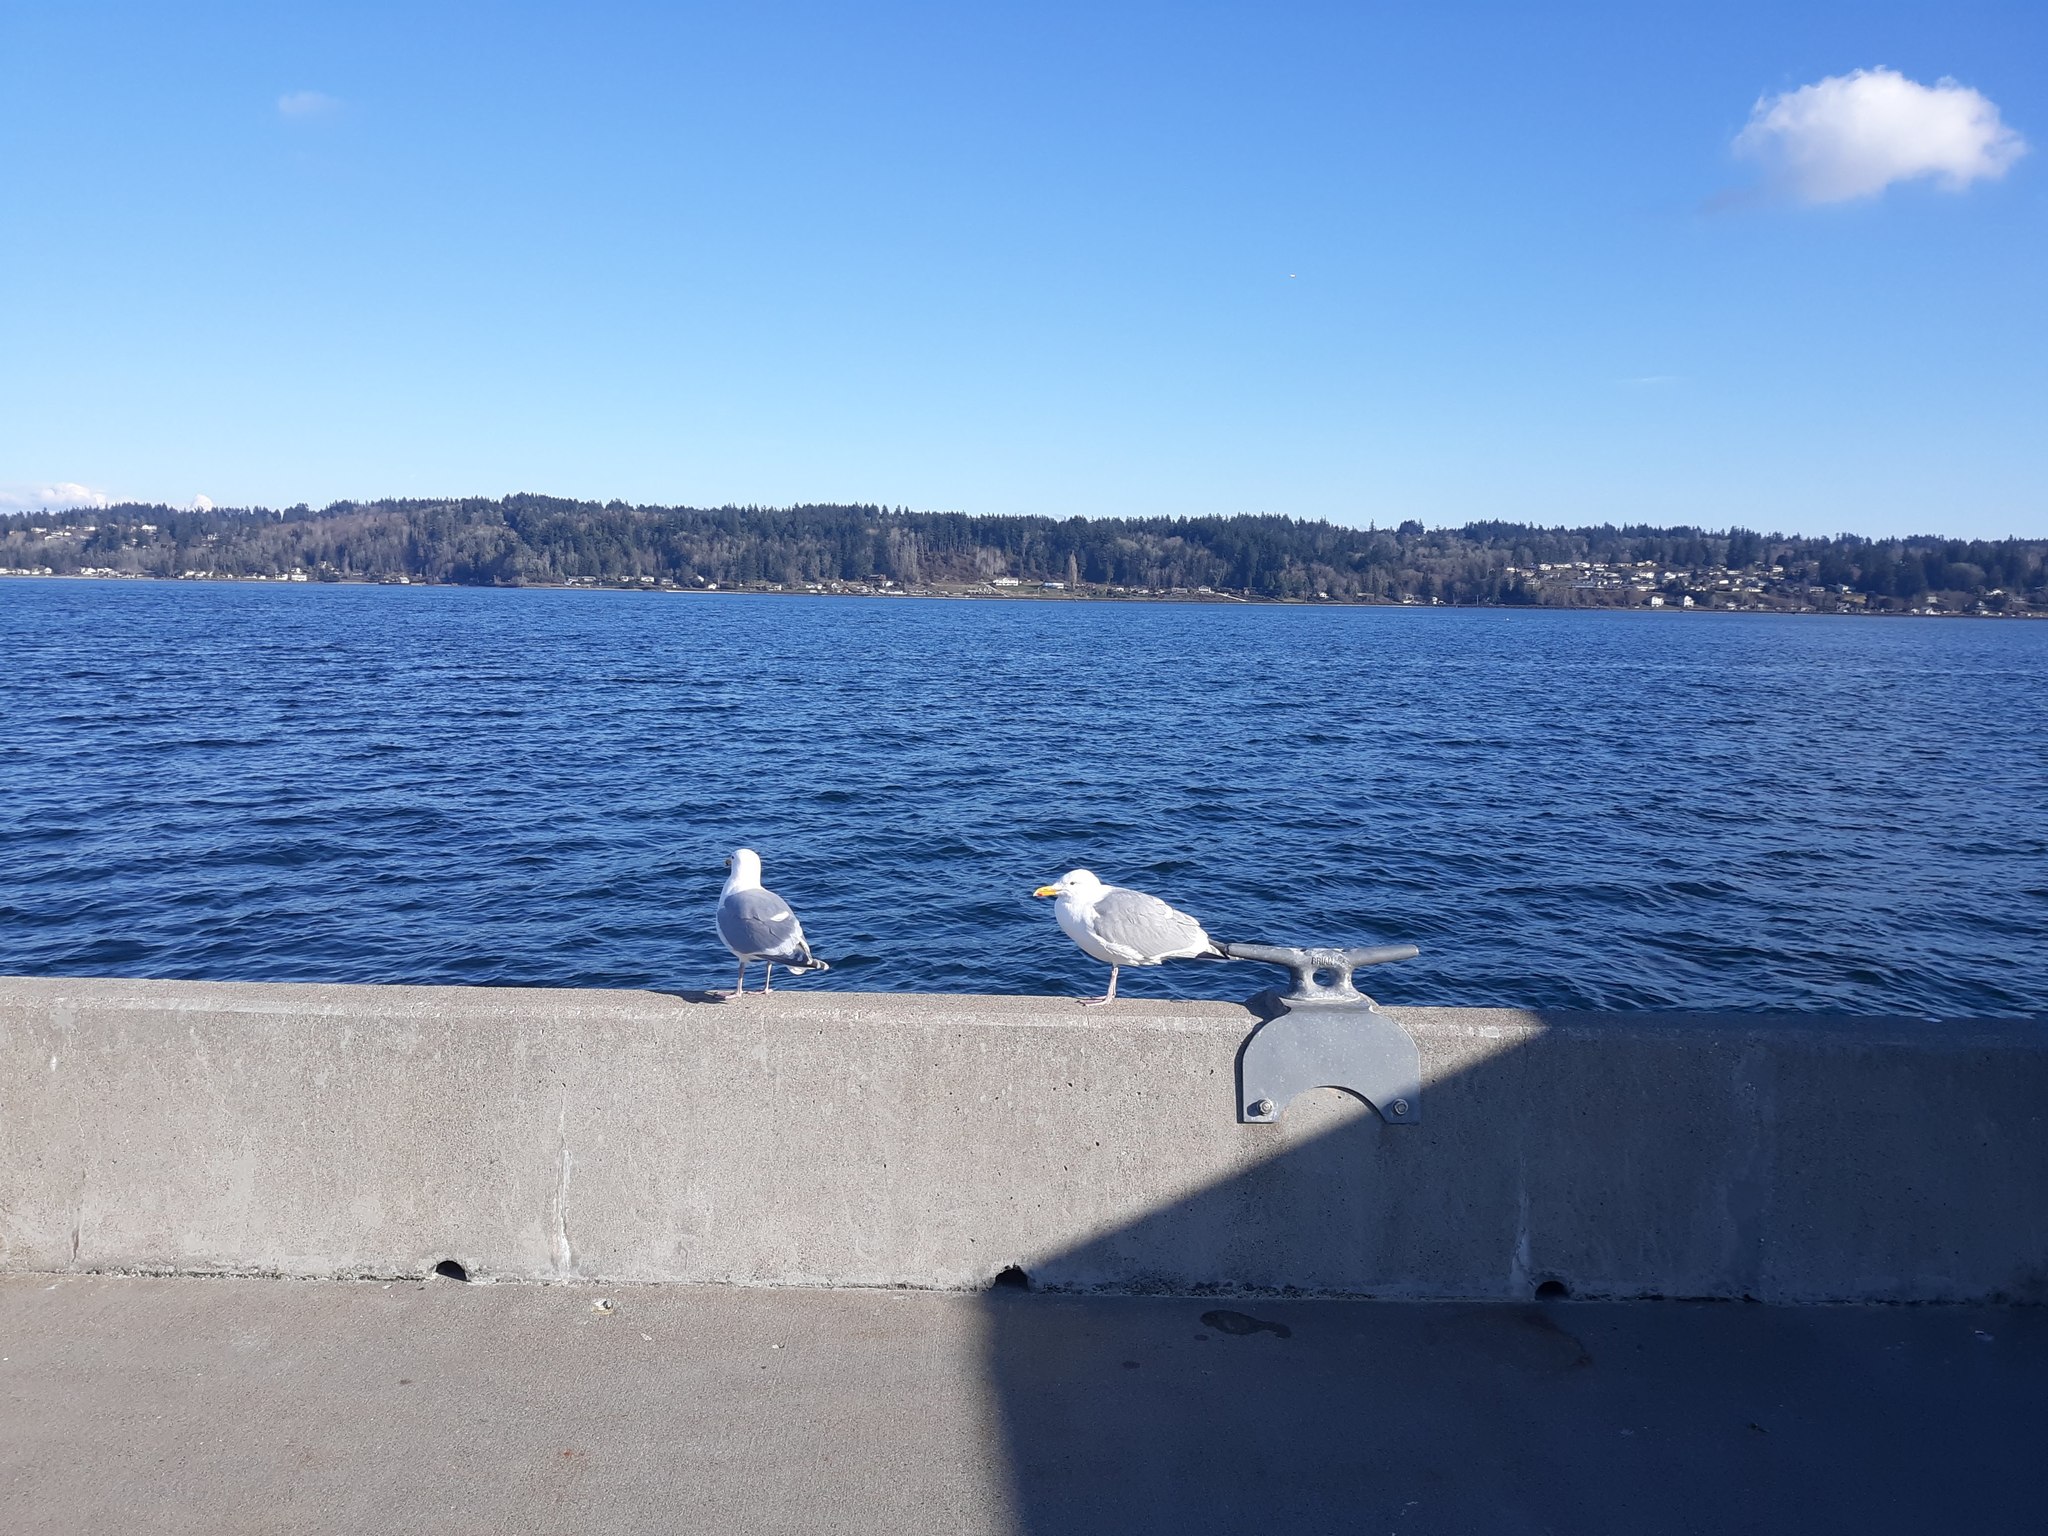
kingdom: Animalia
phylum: Chordata
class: Aves
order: Charadriiformes
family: Laridae
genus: Larus
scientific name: Larus
